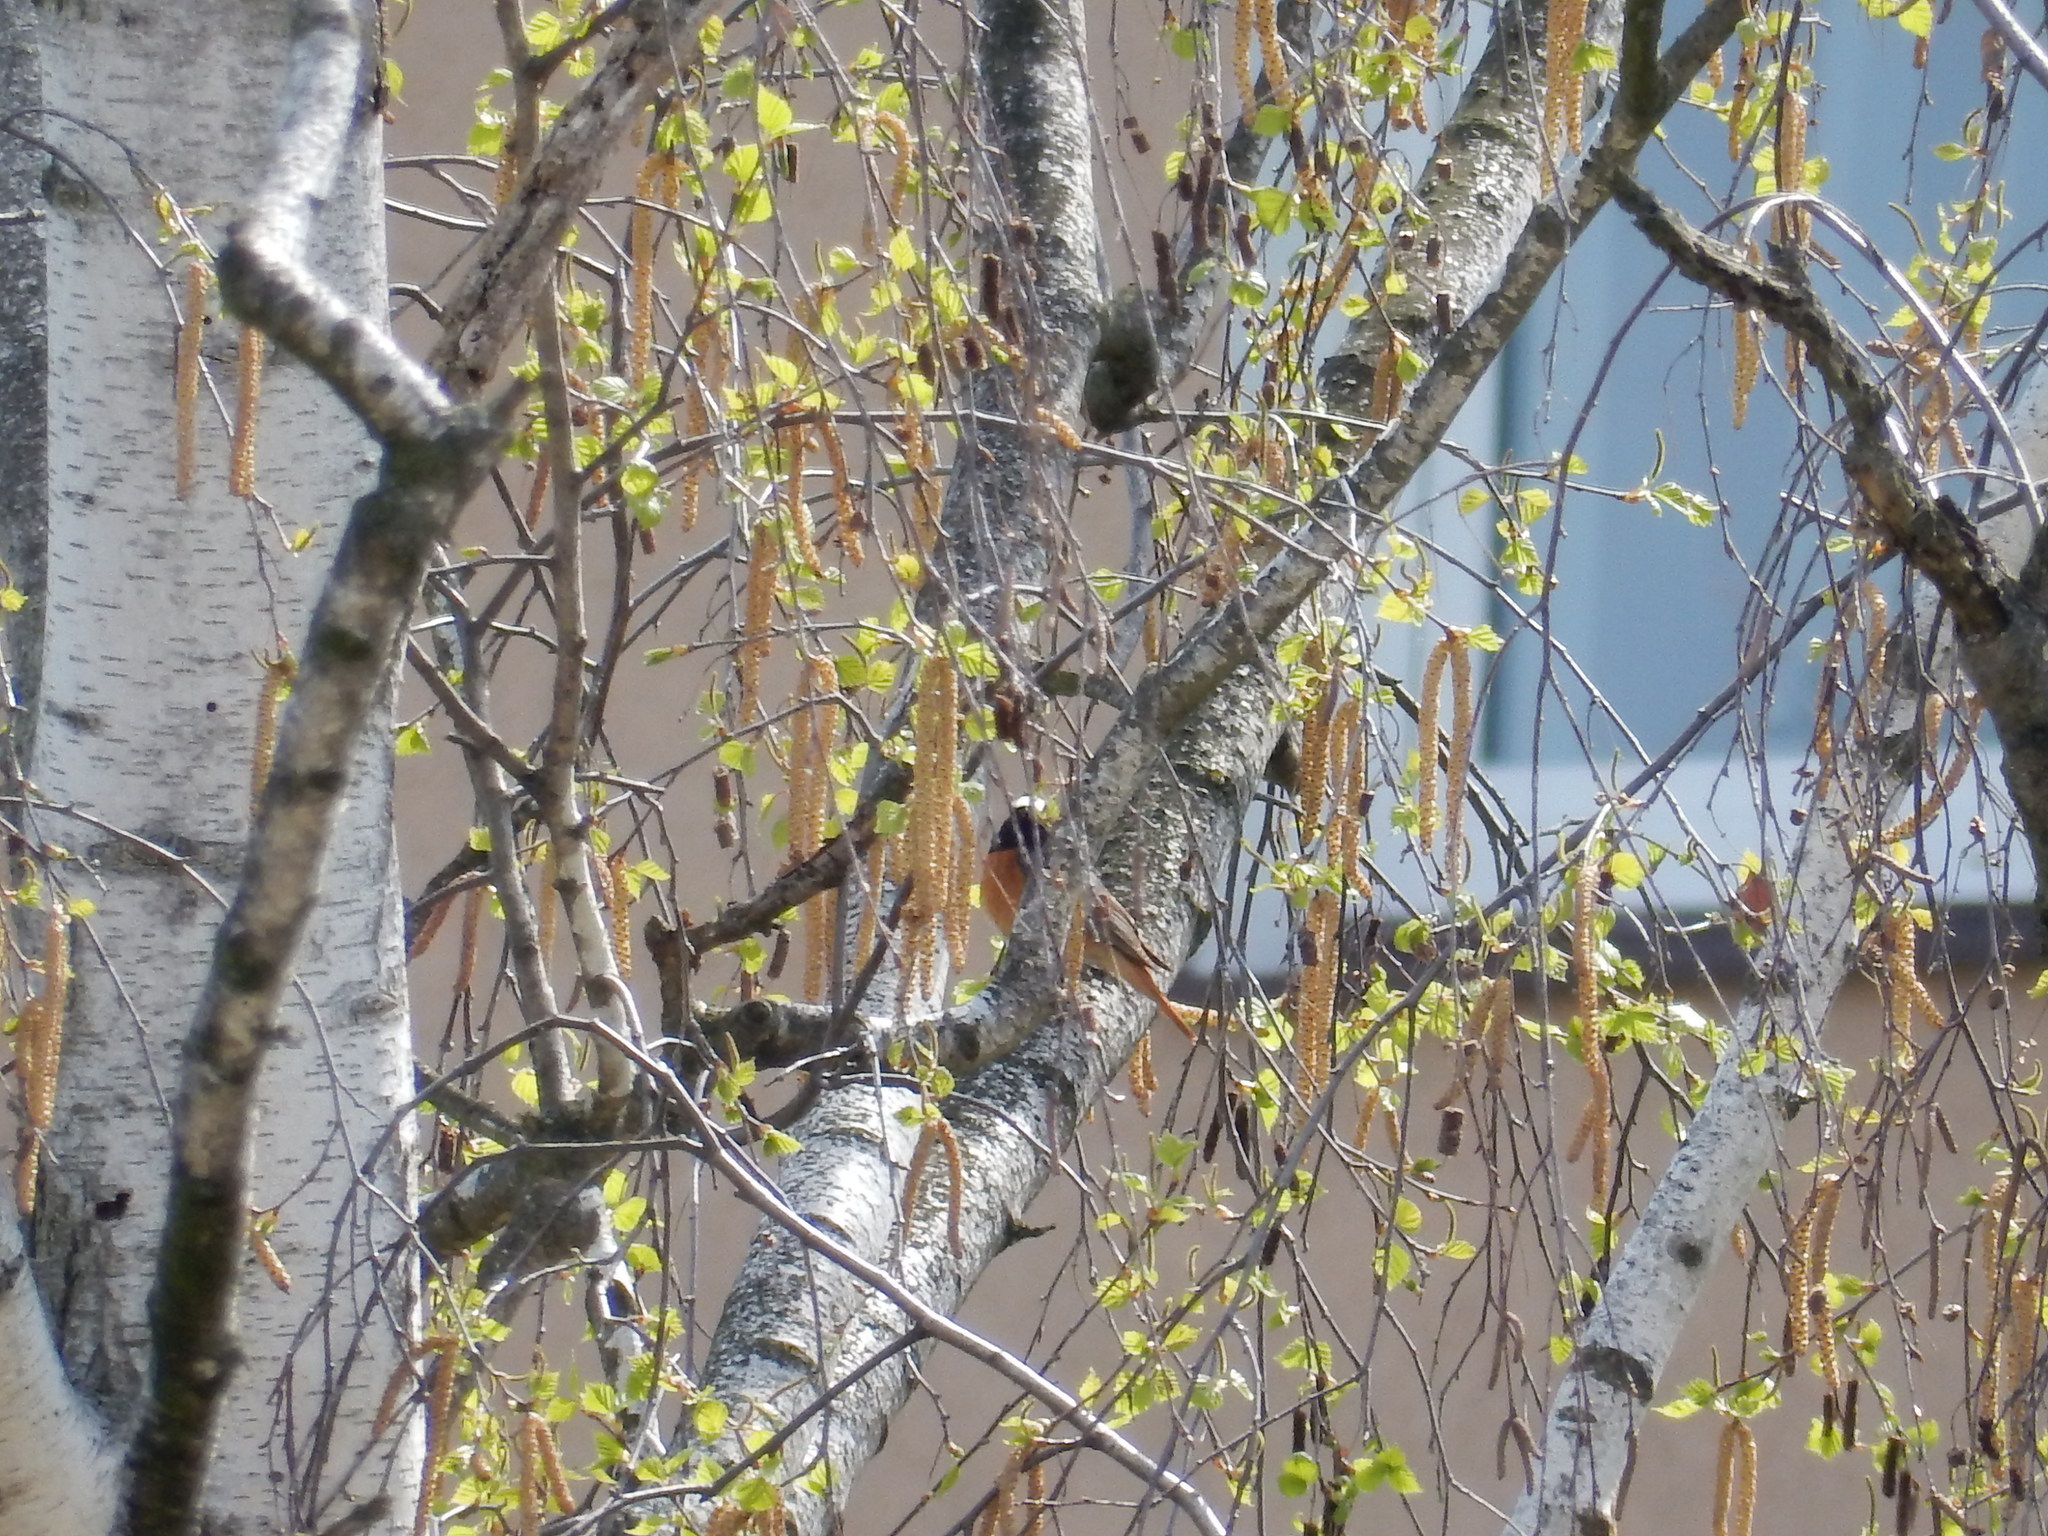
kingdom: Animalia
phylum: Chordata
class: Aves
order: Passeriformes
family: Muscicapidae
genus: Phoenicurus
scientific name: Phoenicurus phoenicurus
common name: Common redstart
